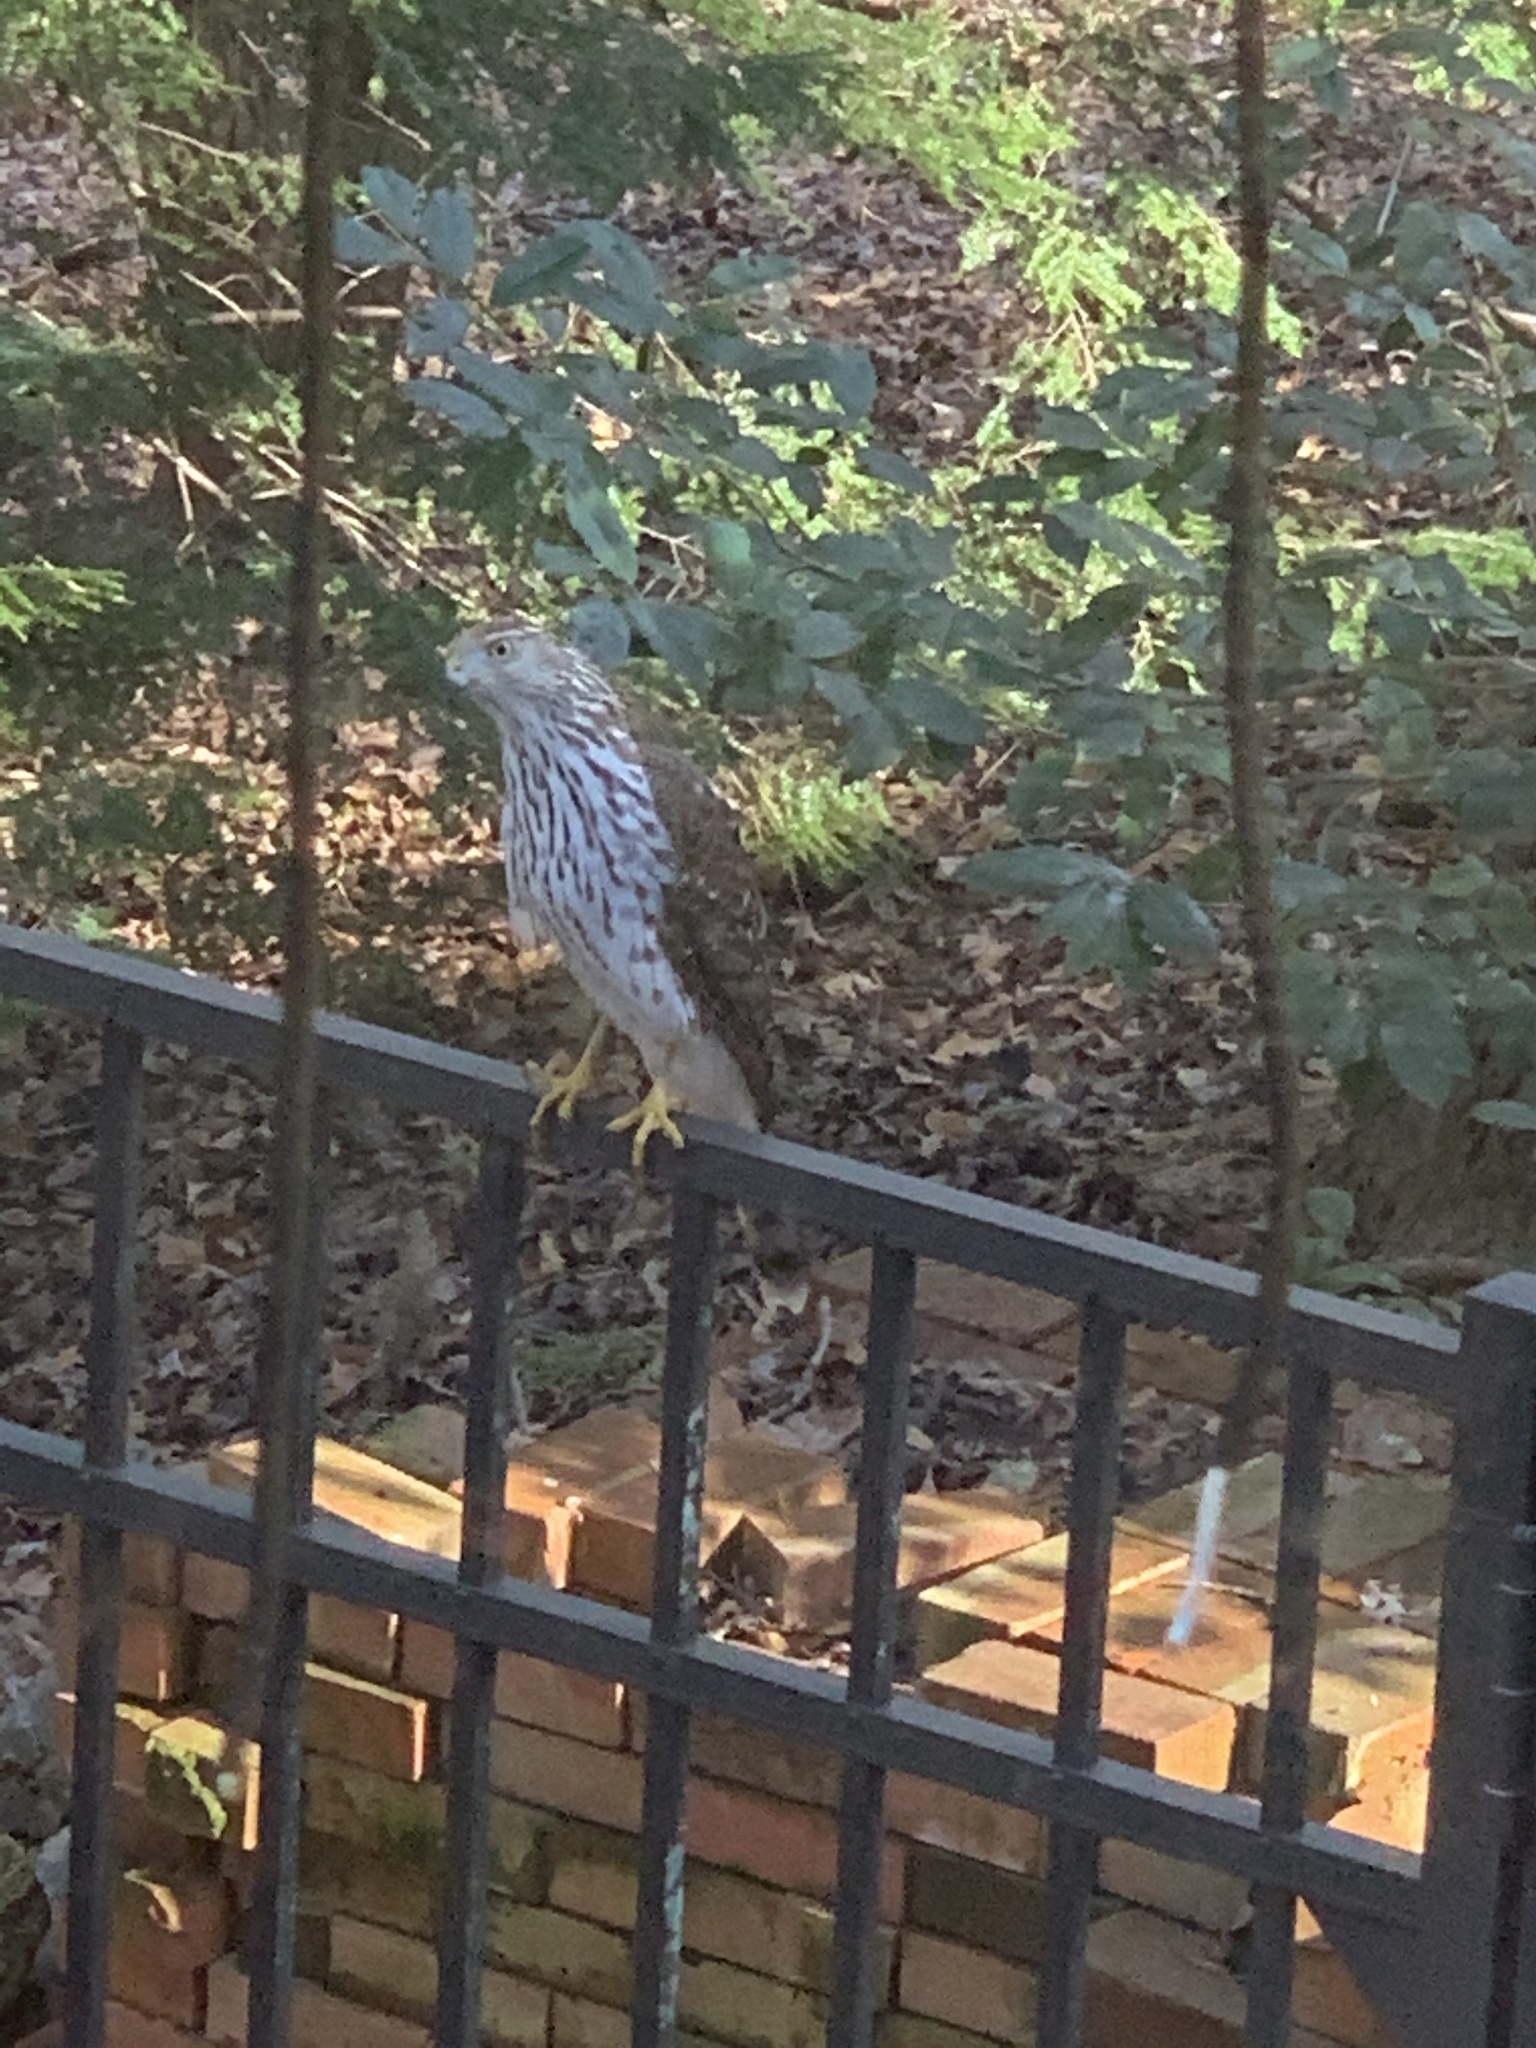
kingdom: Animalia
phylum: Chordata
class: Aves
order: Accipitriformes
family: Accipitridae
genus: Accipiter
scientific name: Accipiter cooperii
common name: Cooper's hawk
